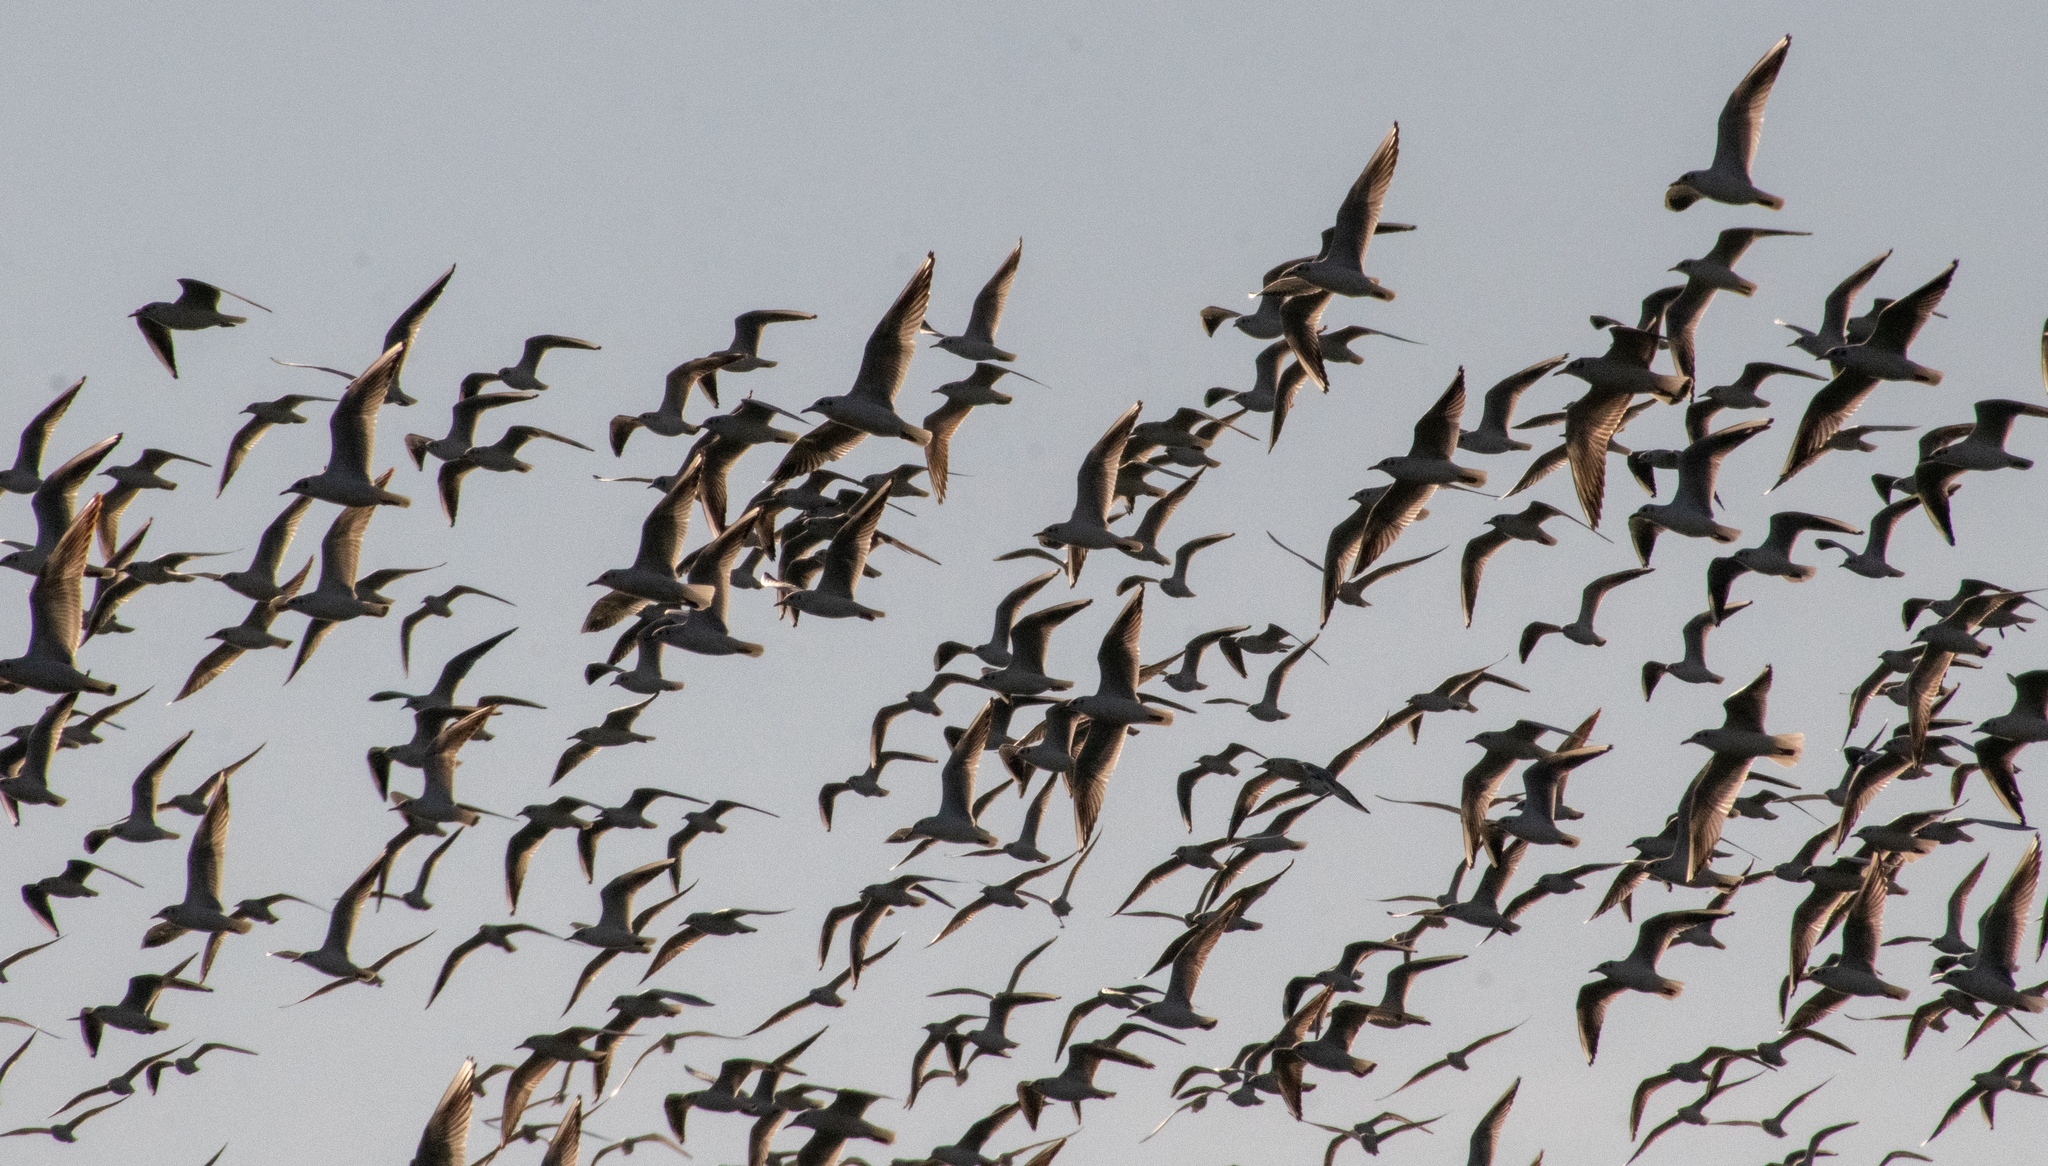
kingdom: Animalia
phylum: Chordata
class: Aves
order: Charadriiformes
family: Laridae
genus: Chroicocephalus
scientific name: Chroicocephalus ridibundus
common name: Black-headed gull
